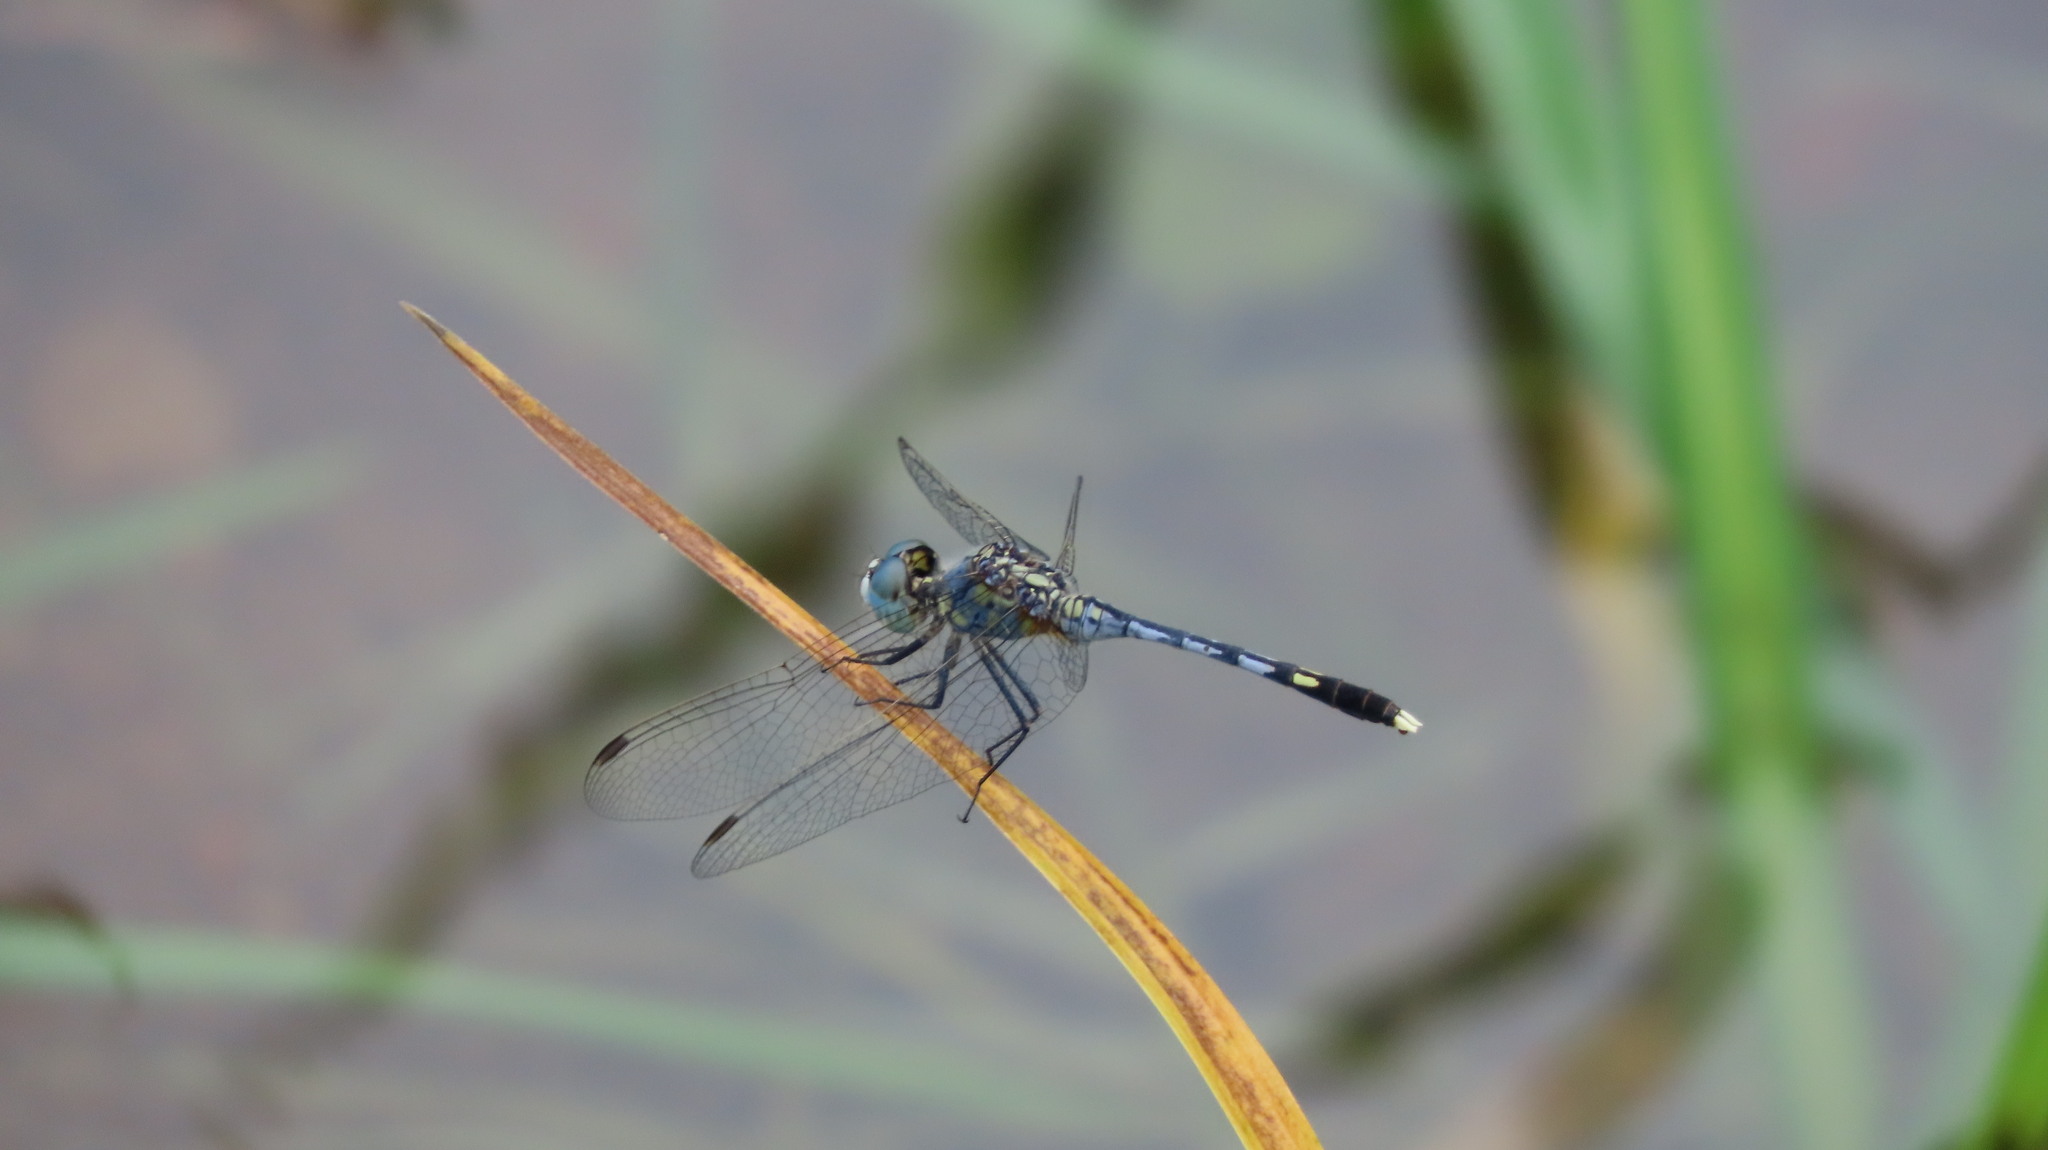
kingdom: Animalia
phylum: Arthropoda
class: Insecta
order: Odonata
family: Libellulidae
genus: Diplacodes
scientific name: Diplacodes trivialis
